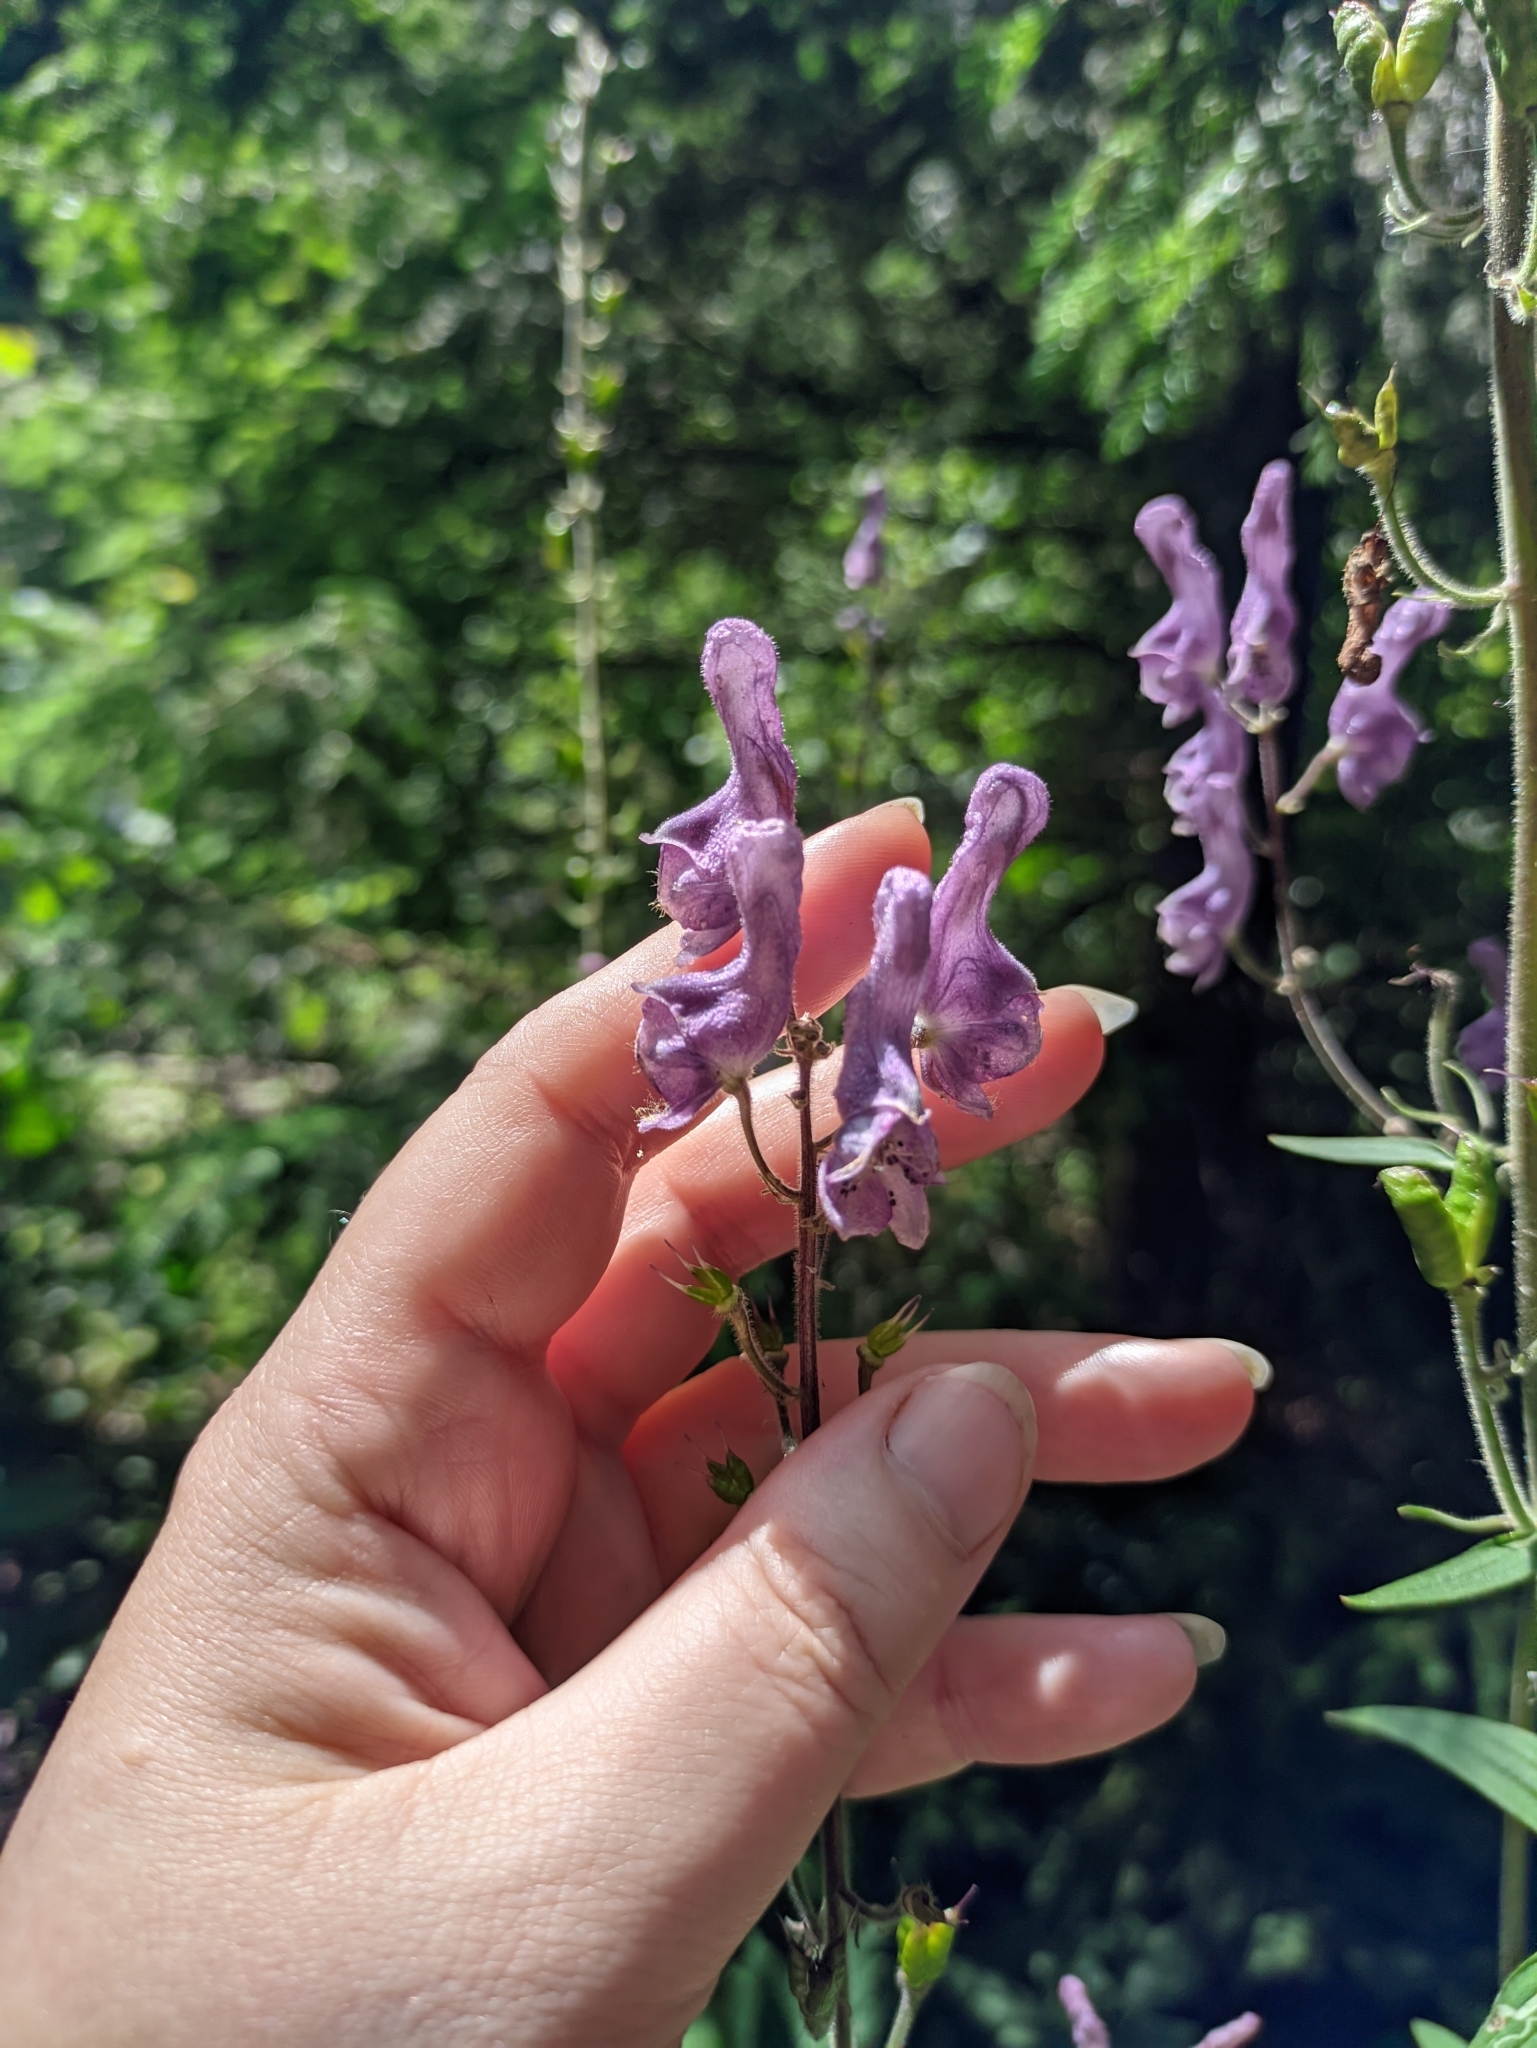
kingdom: Plantae
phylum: Tracheophyta
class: Magnoliopsida
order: Ranunculales
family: Ranunculaceae
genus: Aconitum
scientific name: Aconitum septentrionale
